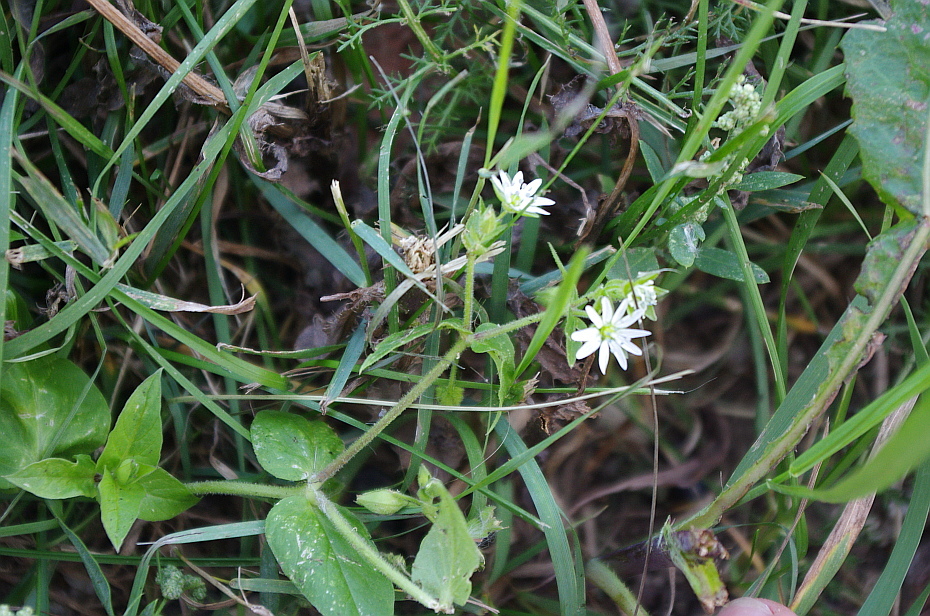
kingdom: Plantae
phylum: Tracheophyta
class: Magnoliopsida
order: Caryophyllales
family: Caryophyllaceae
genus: Stellaria
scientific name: Stellaria aquatica
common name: Water chickweed
